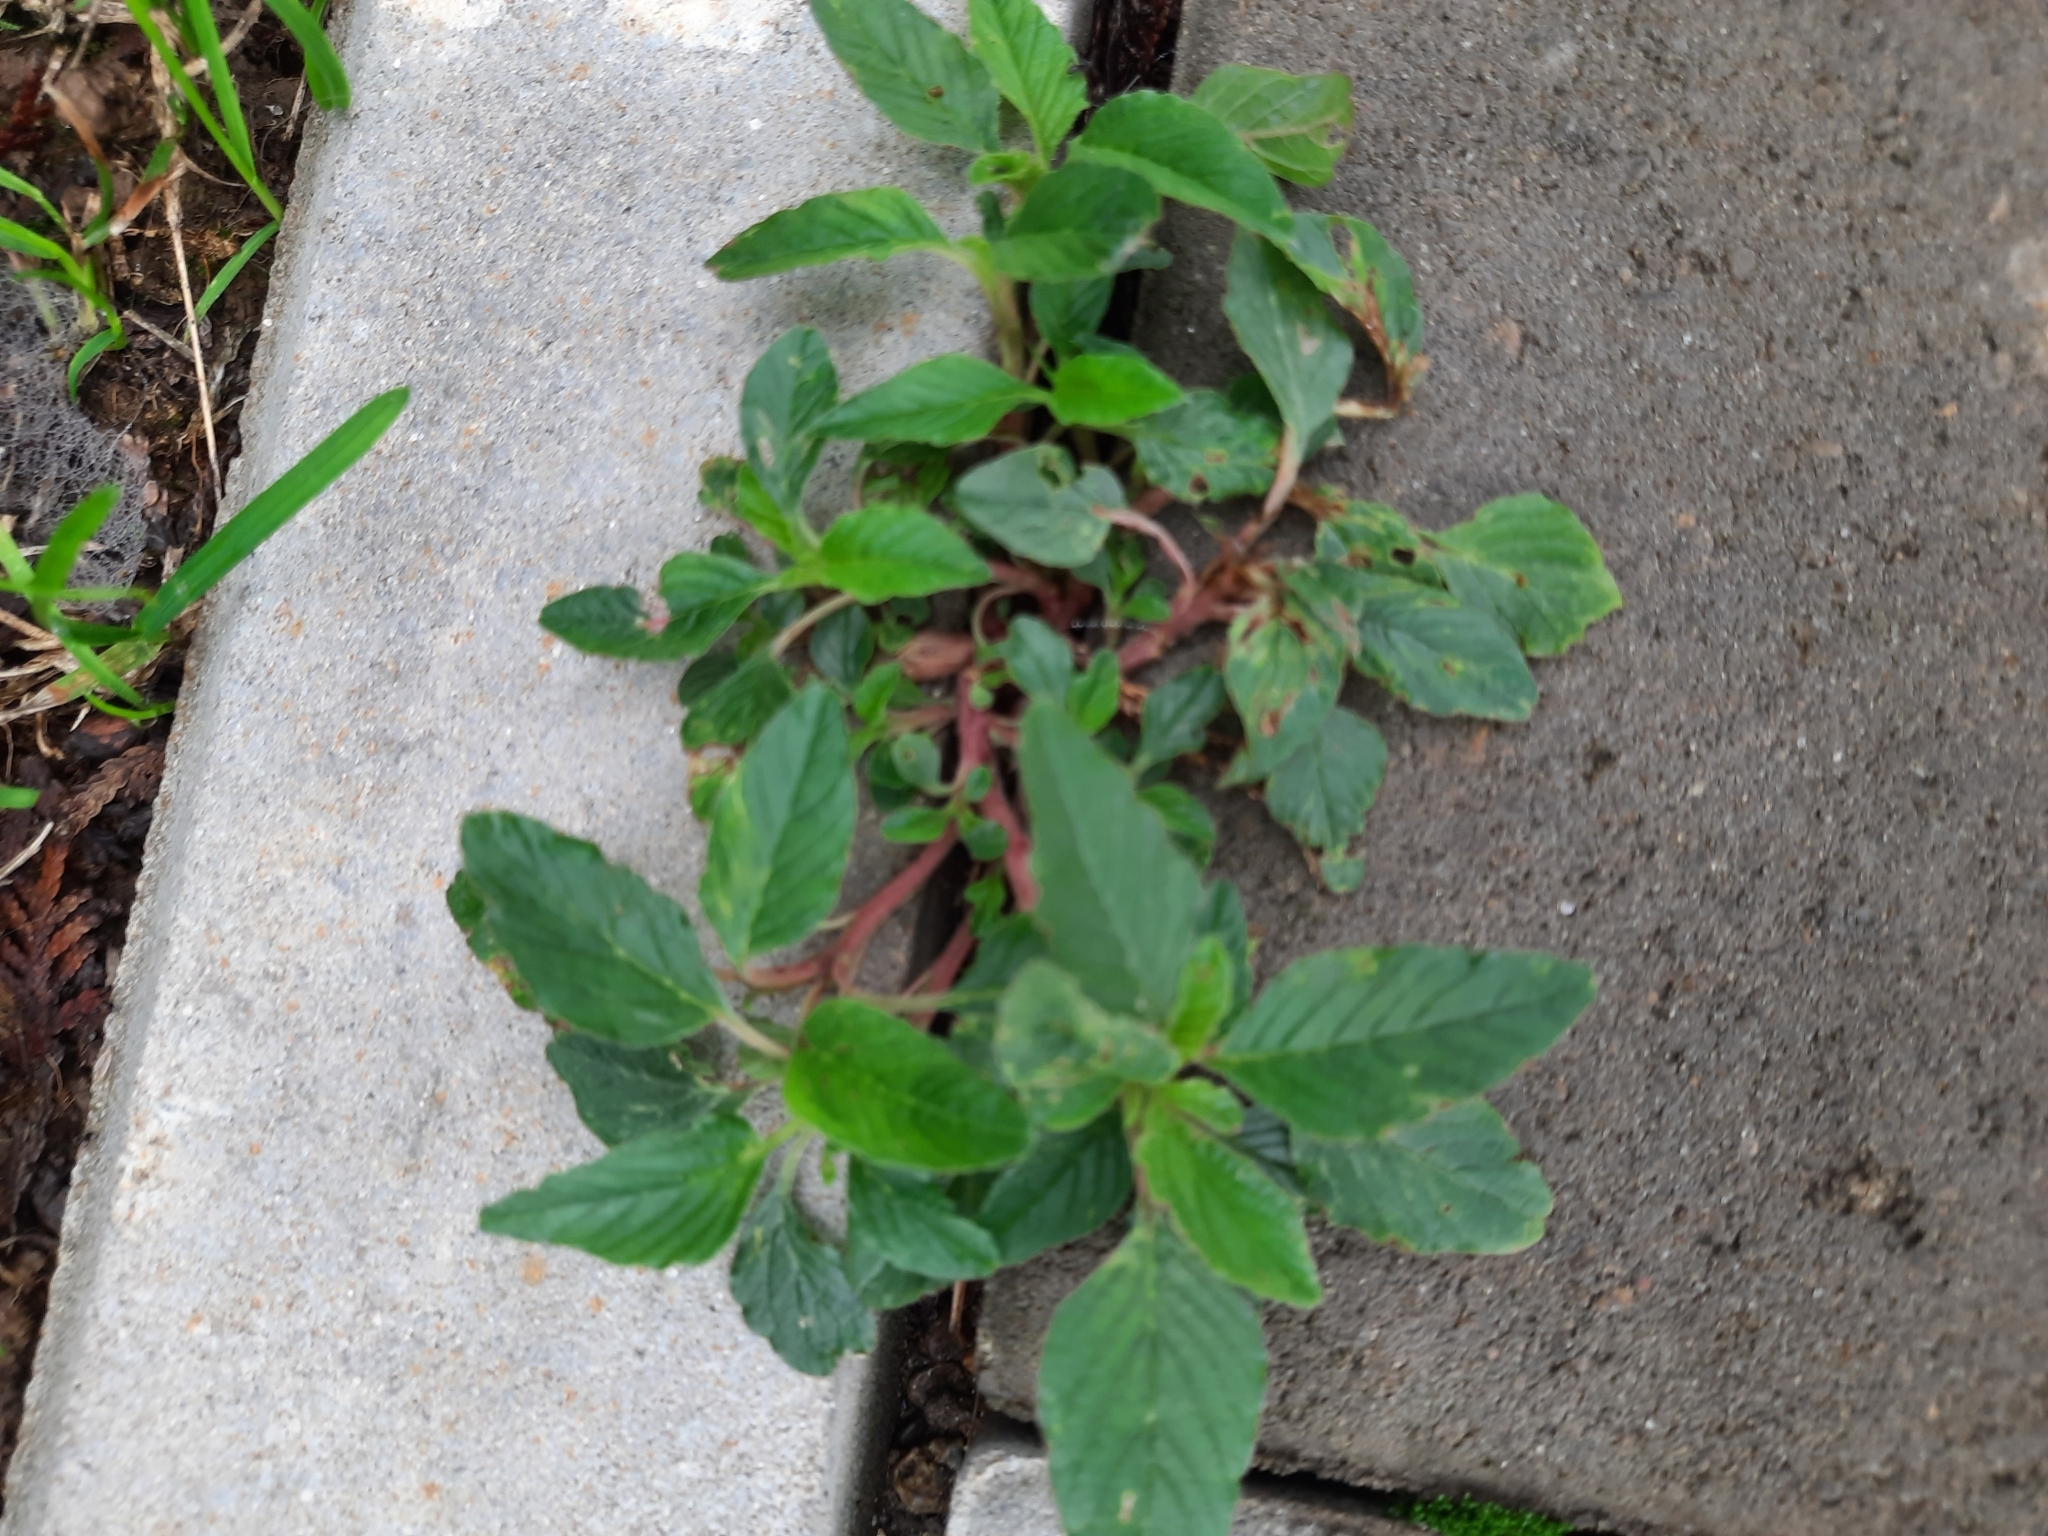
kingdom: Plantae
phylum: Tracheophyta
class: Magnoliopsida
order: Caryophyllales
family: Amaranthaceae
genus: Amaranthus
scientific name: Amaranthus retroflexus
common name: Redroot amaranth
